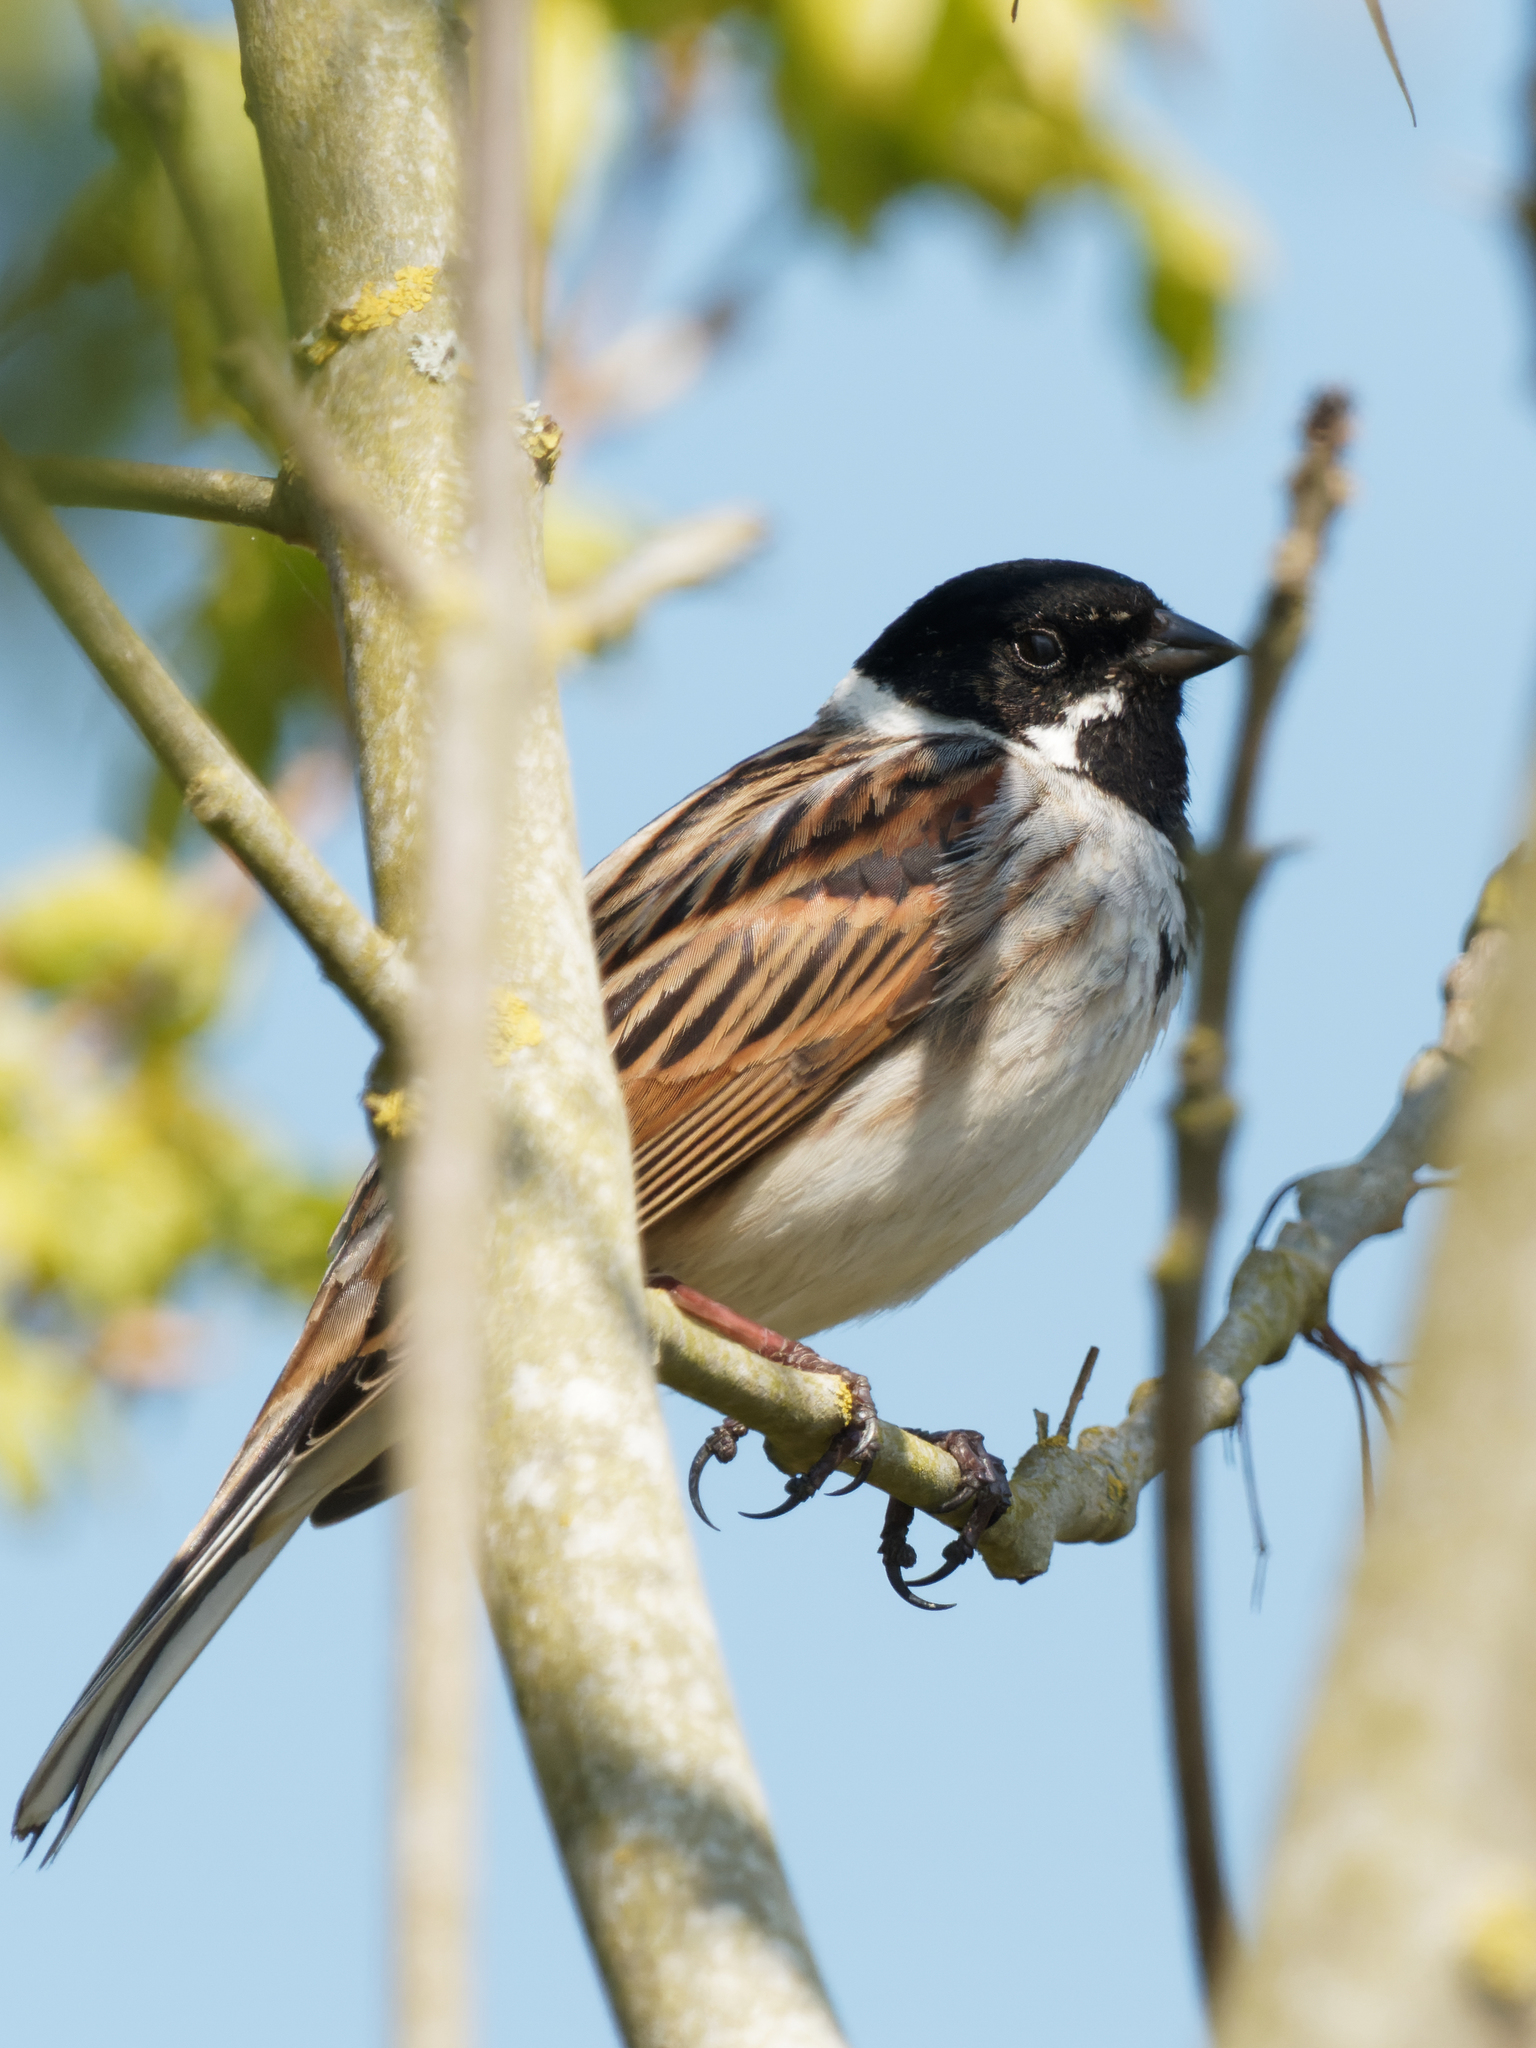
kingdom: Animalia
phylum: Chordata
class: Aves
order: Passeriformes
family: Emberizidae
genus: Emberiza
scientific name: Emberiza schoeniclus
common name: Reed bunting
